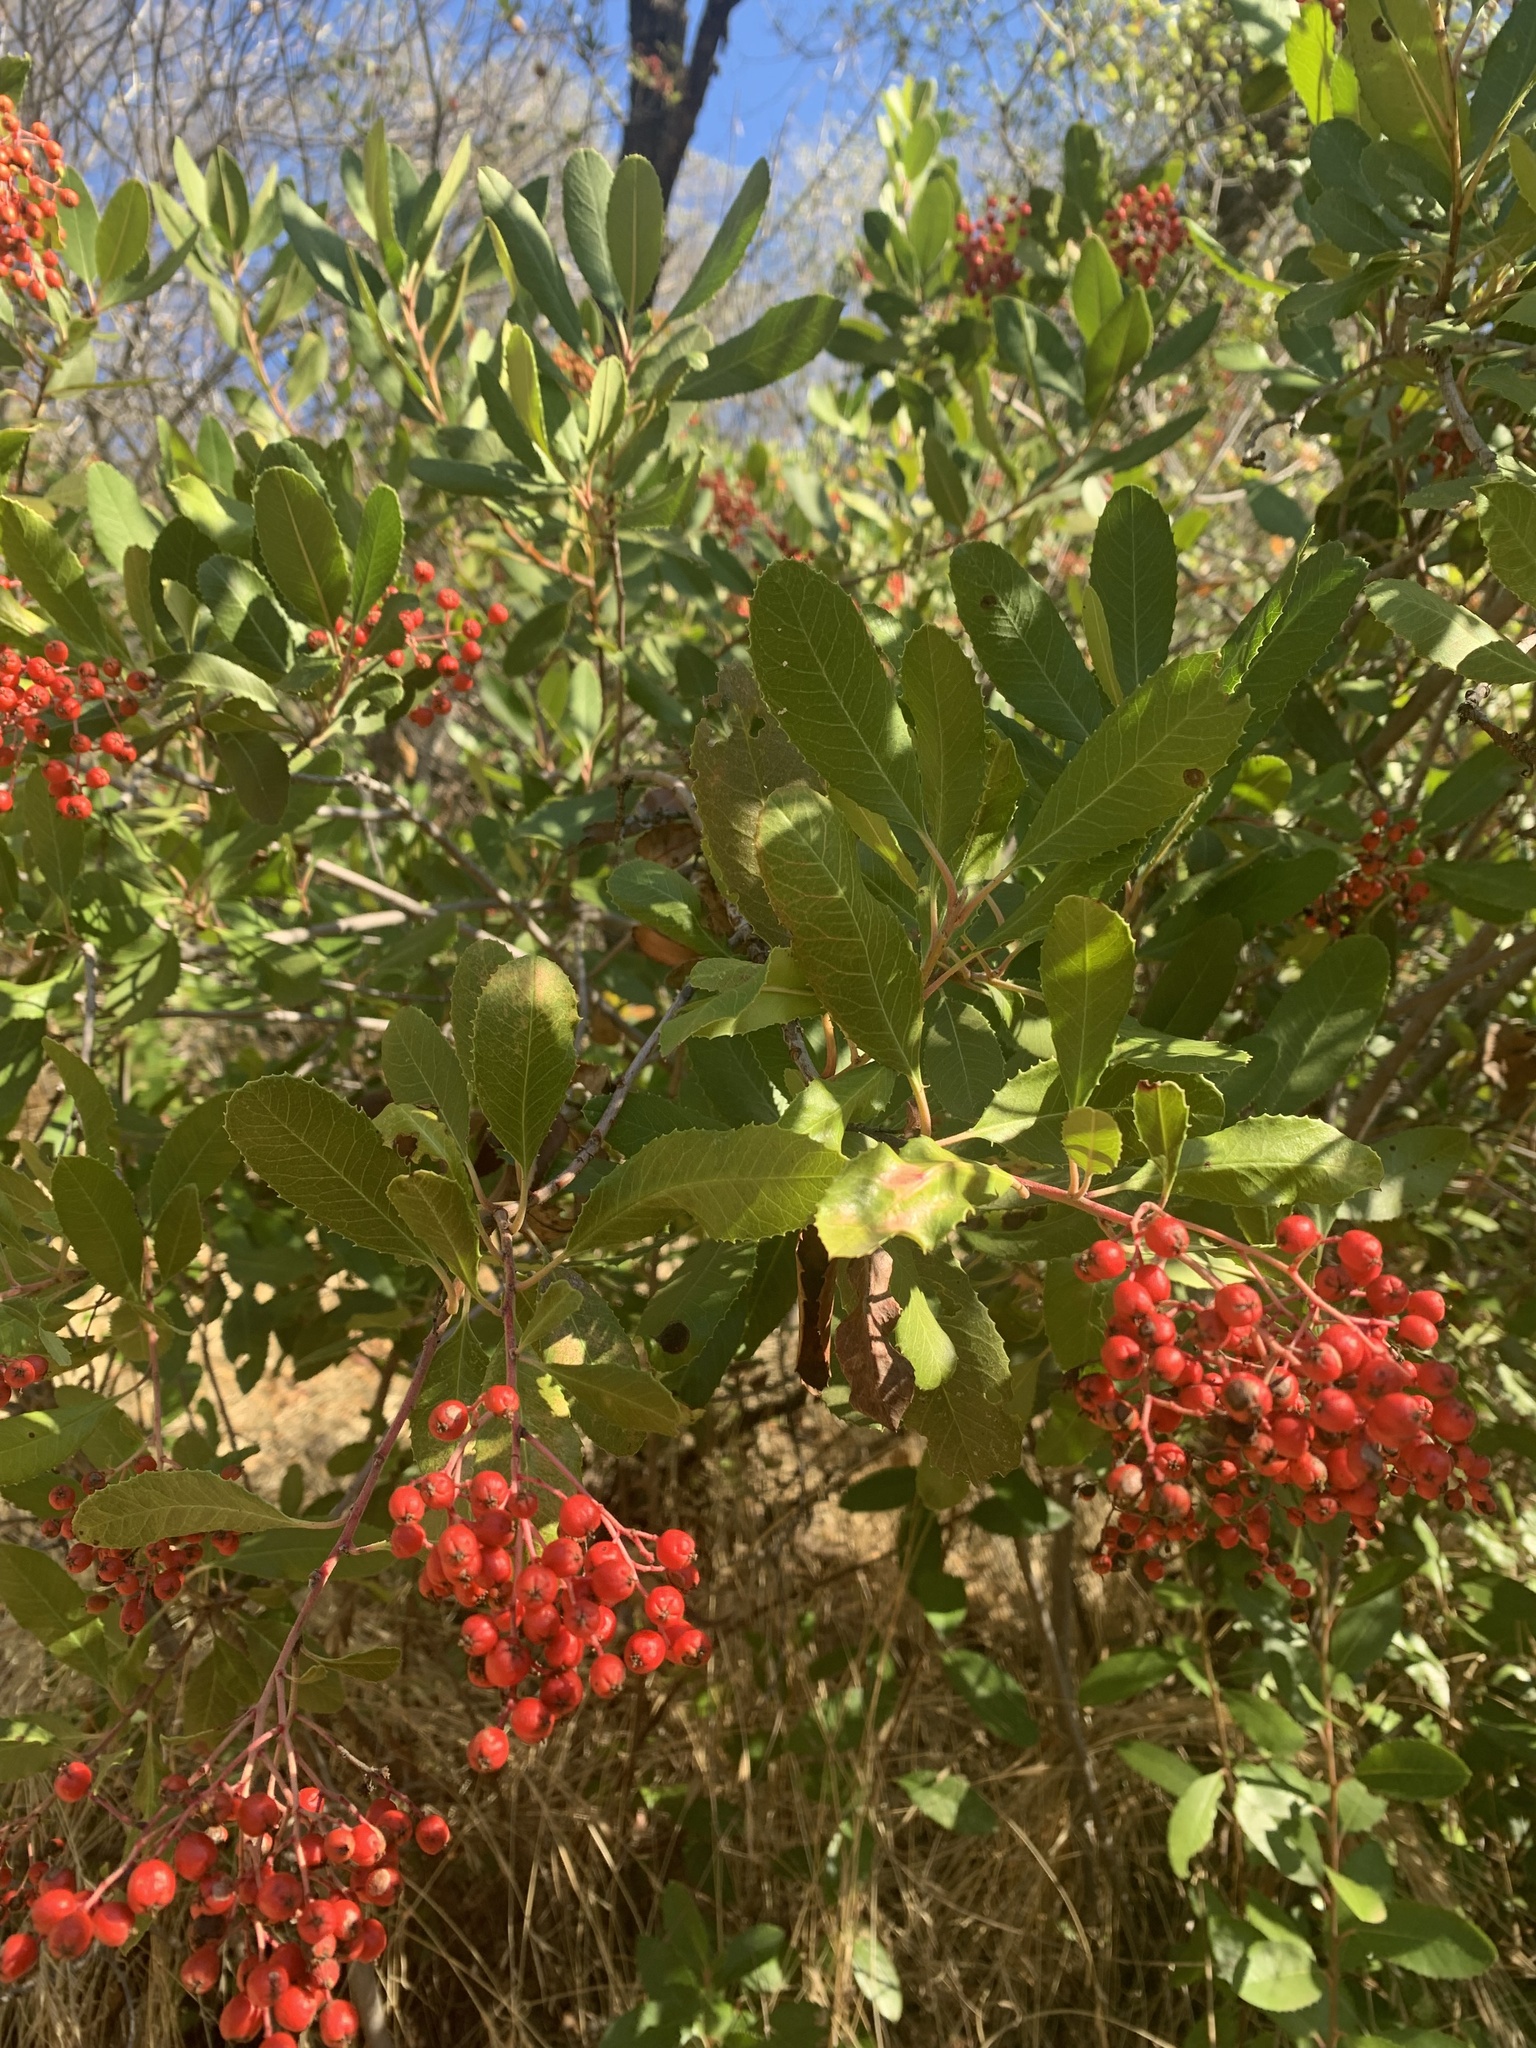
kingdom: Plantae
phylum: Tracheophyta
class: Magnoliopsida
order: Rosales
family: Rosaceae
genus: Heteromeles
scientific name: Heteromeles arbutifolia
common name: California-holly
